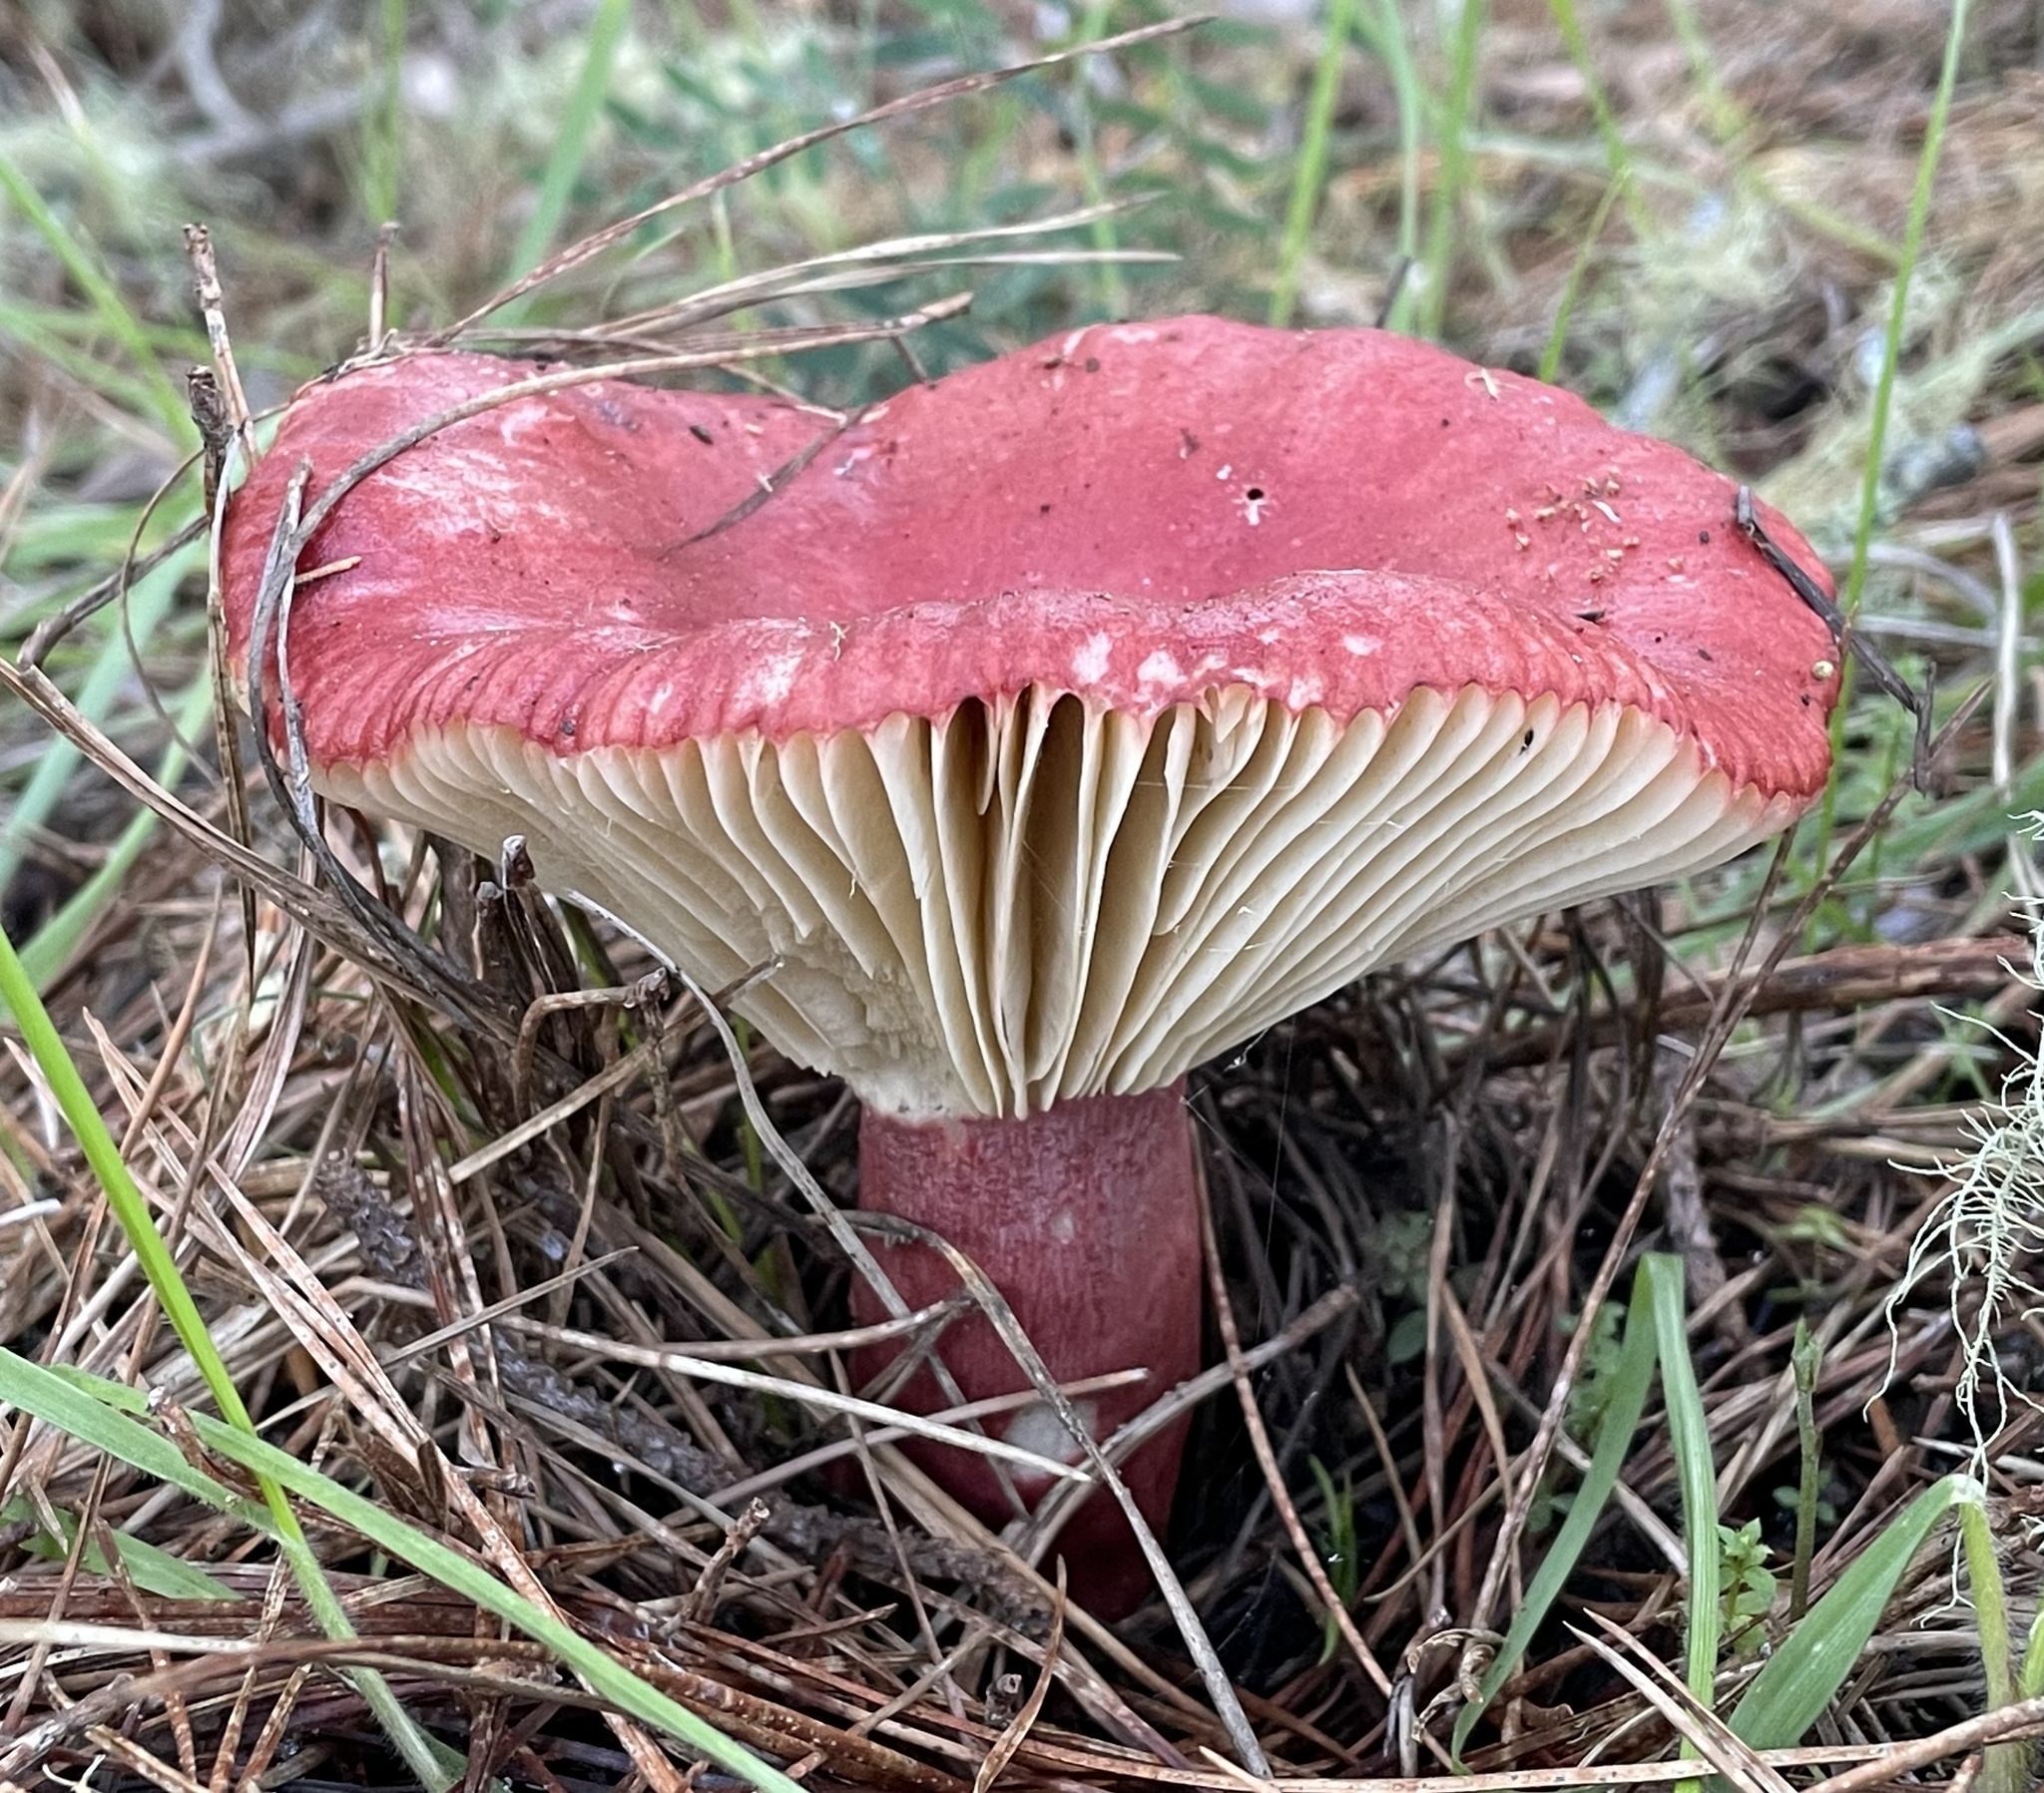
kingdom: Fungi
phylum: Basidiomycota
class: Agaricomycetes
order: Russulales
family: Russulaceae
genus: Russula
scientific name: Russula rhodocephala
